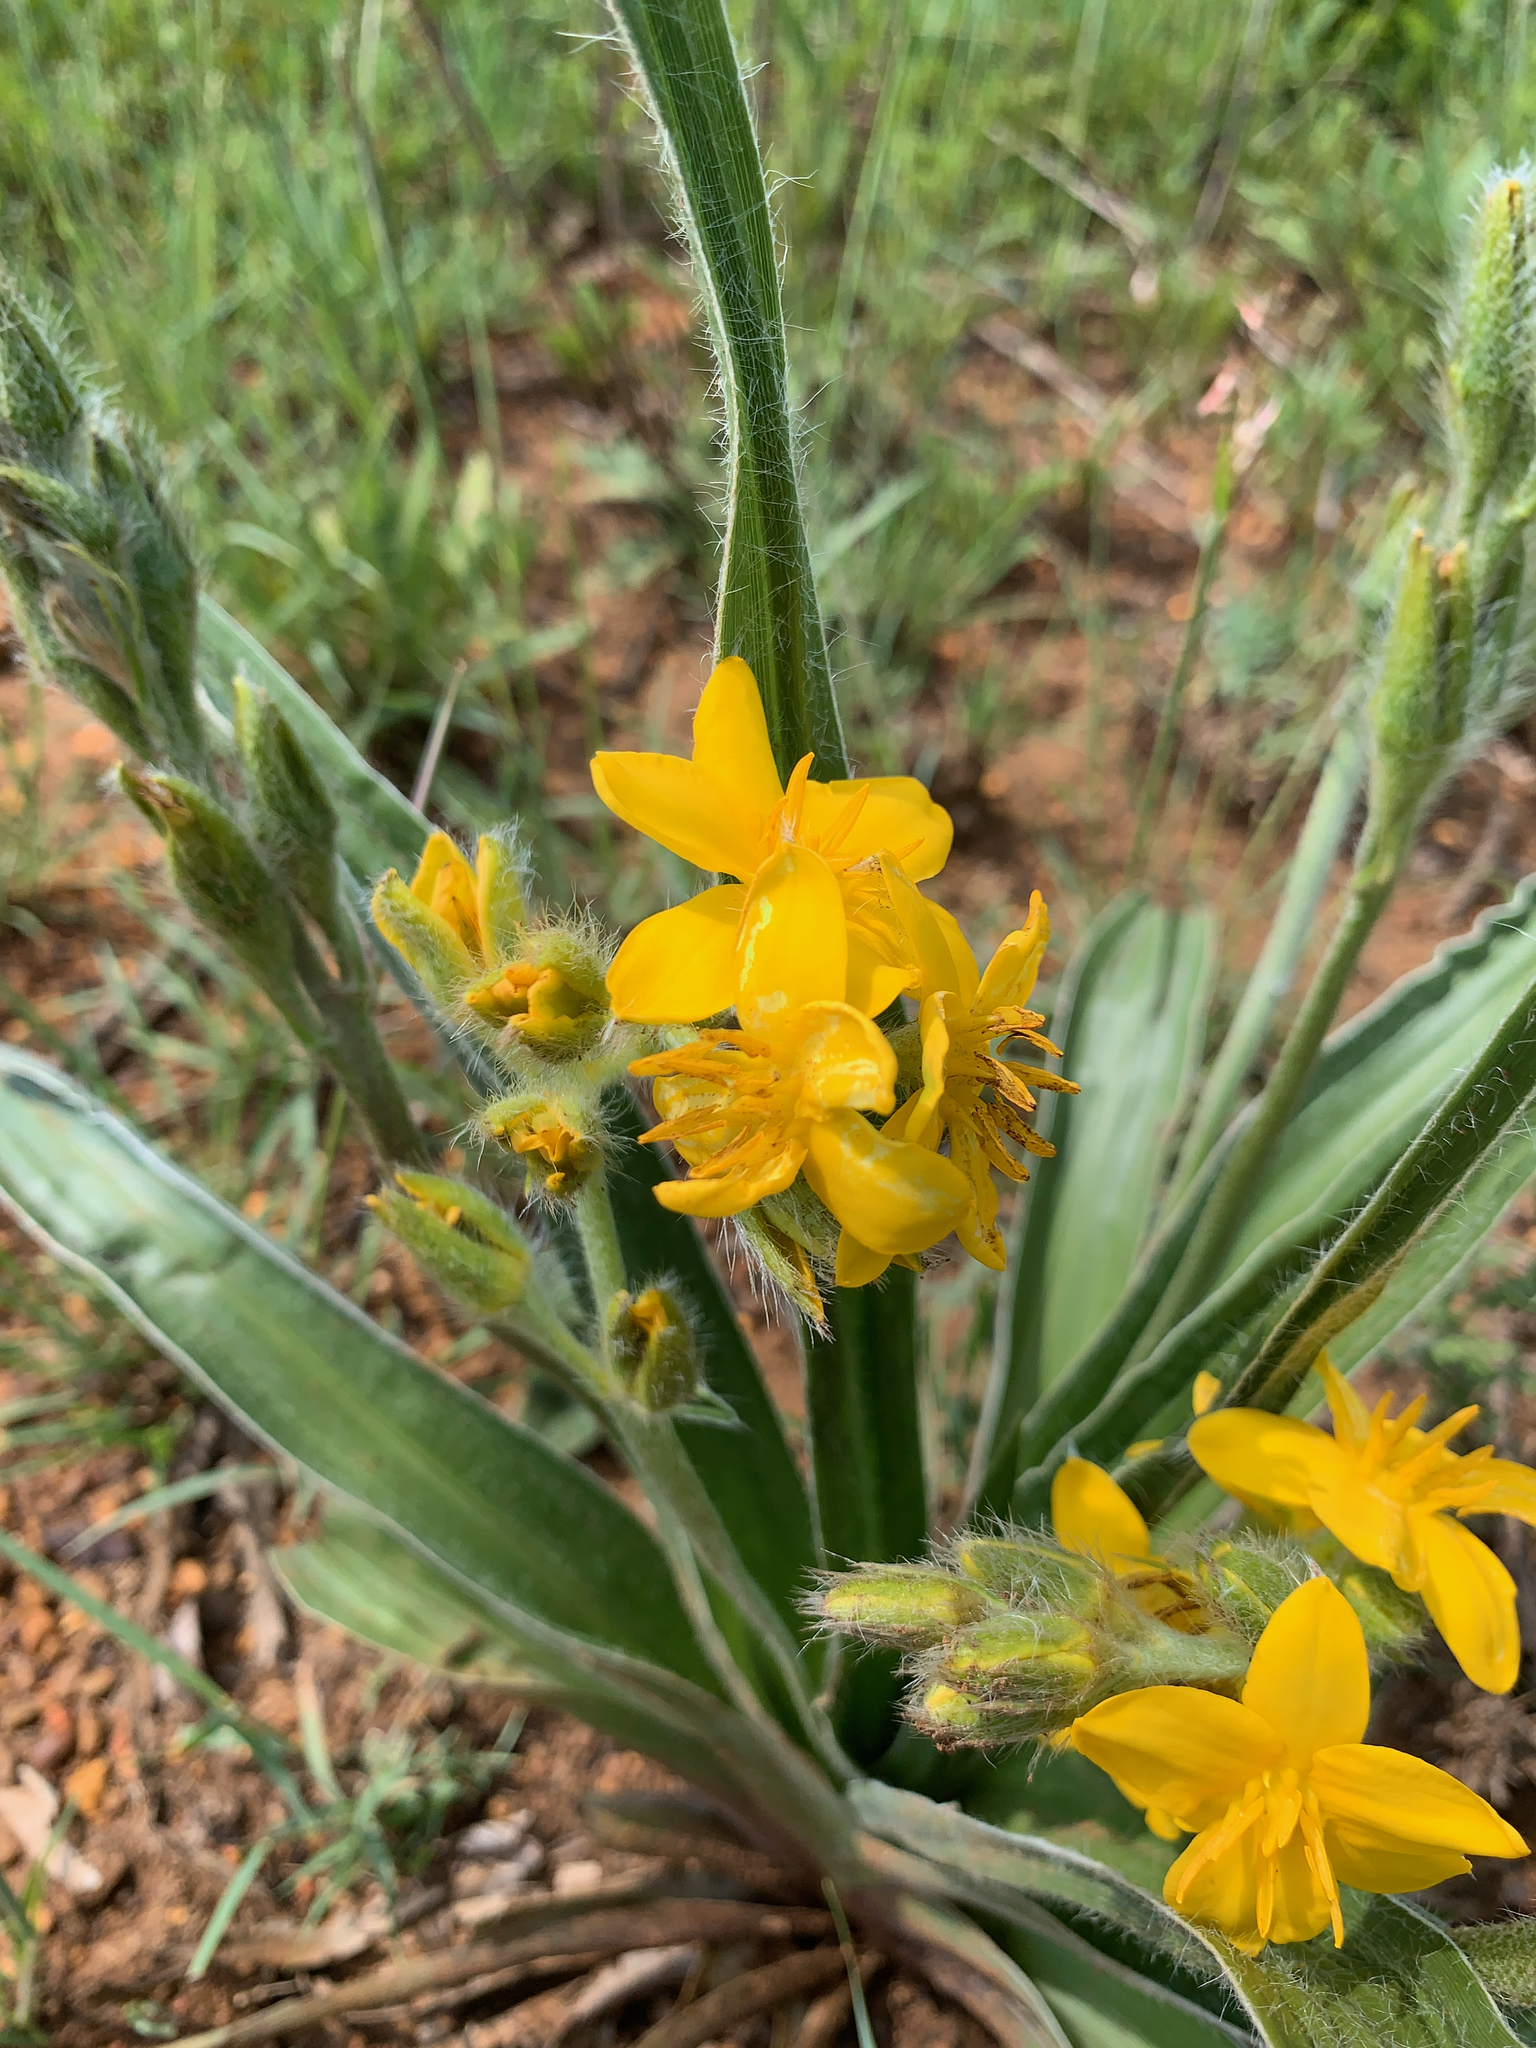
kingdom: Plantae
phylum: Tracheophyta
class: Liliopsida
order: Asparagales
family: Hypoxidaceae
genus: Hypoxis
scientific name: Hypoxis obtusa
